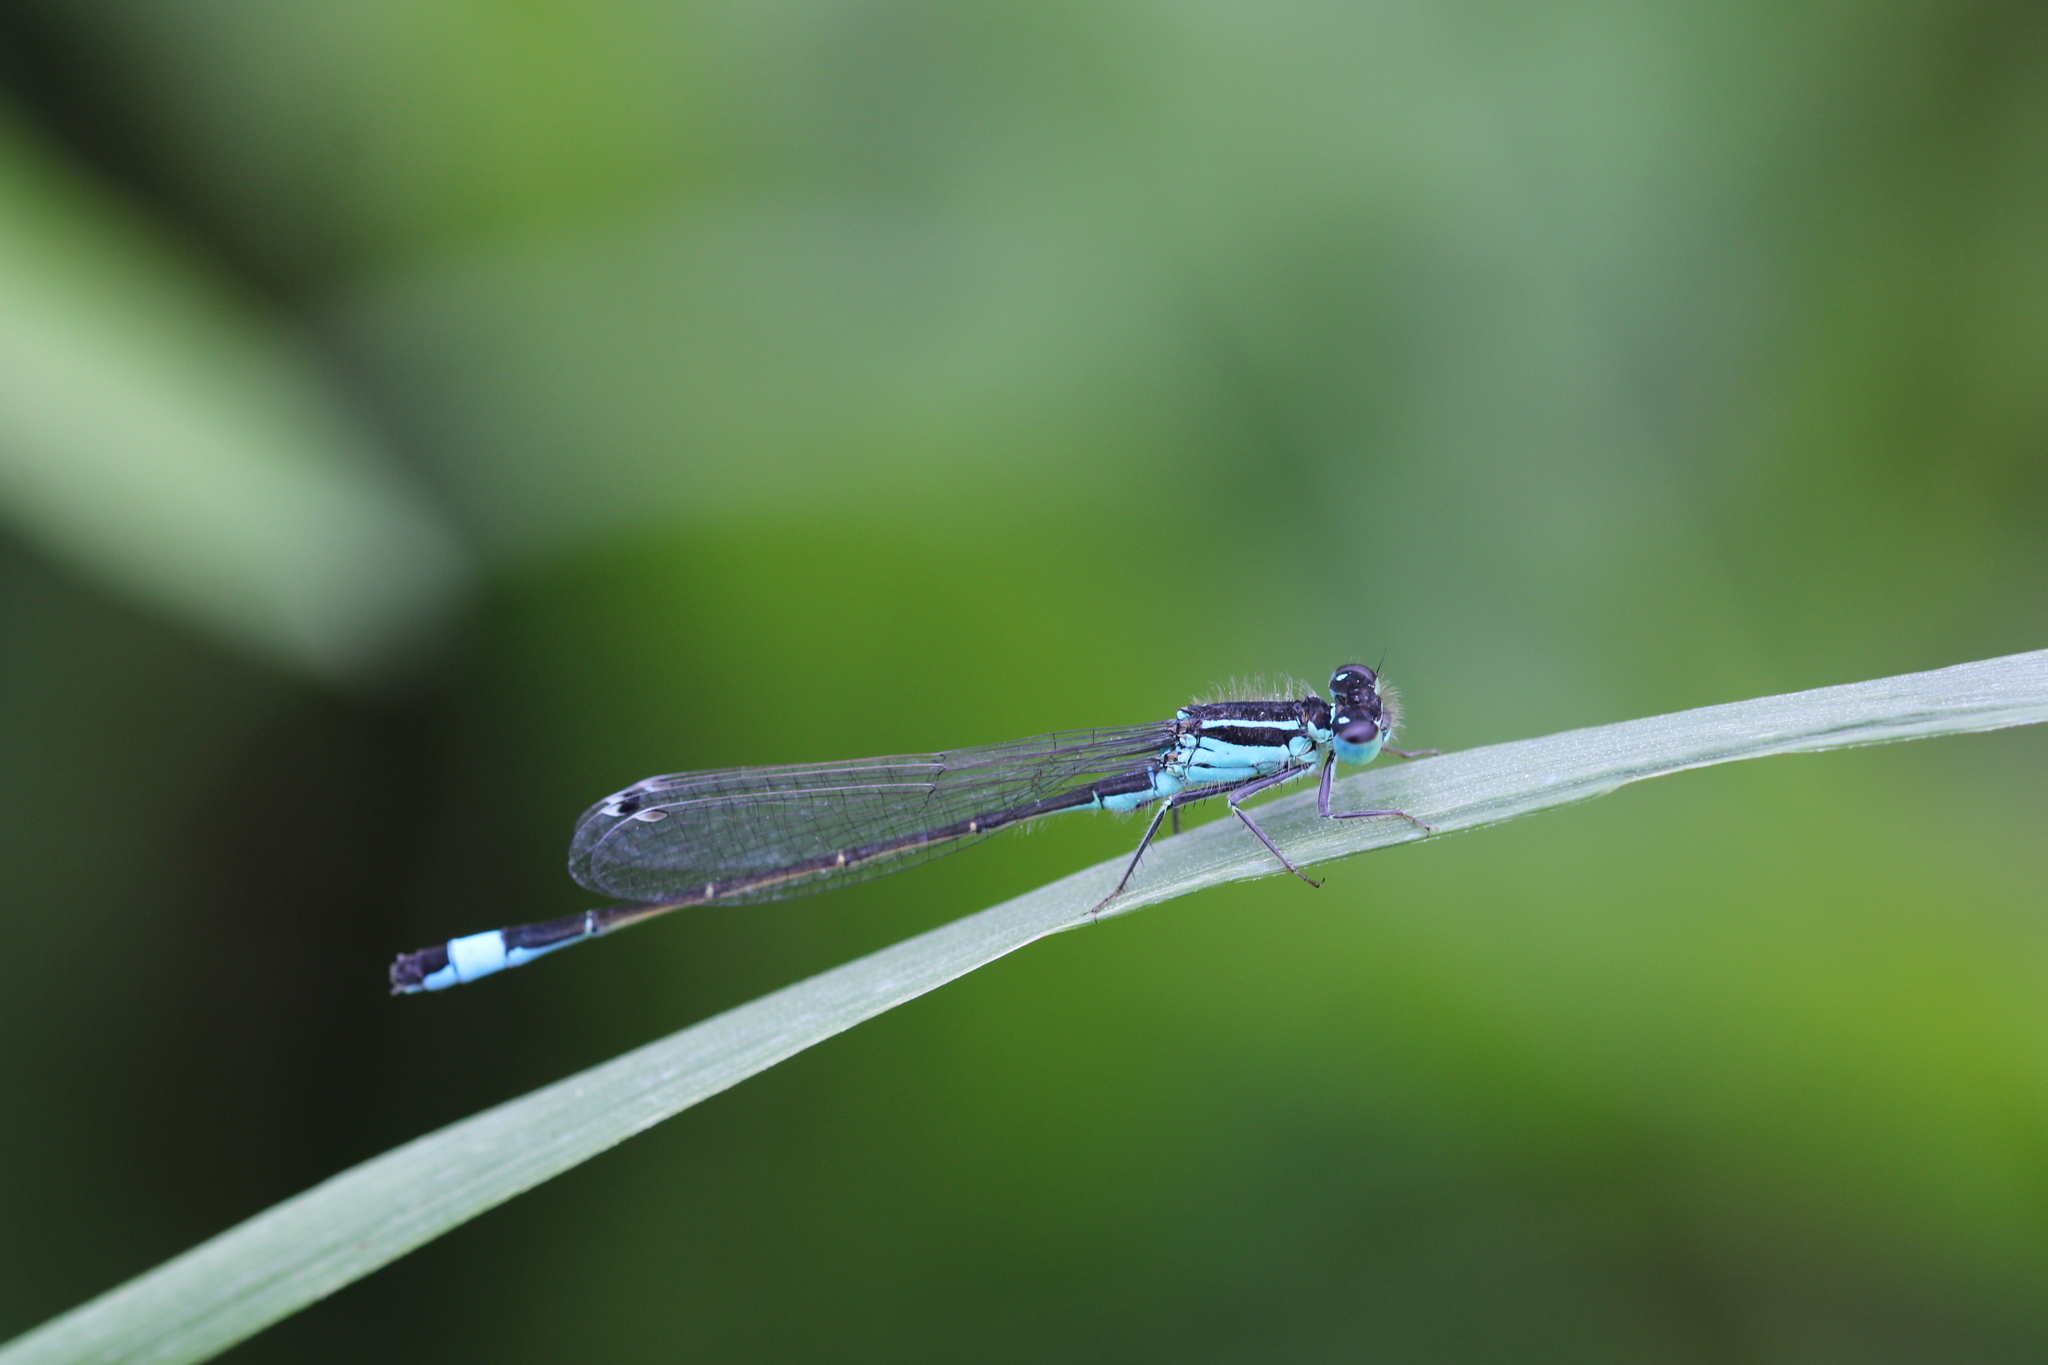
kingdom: Animalia
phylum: Arthropoda
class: Insecta
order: Odonata
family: Coenagrionidae
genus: Ischnura
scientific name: Ischnura elegans
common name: Blue-tailed damselfly
